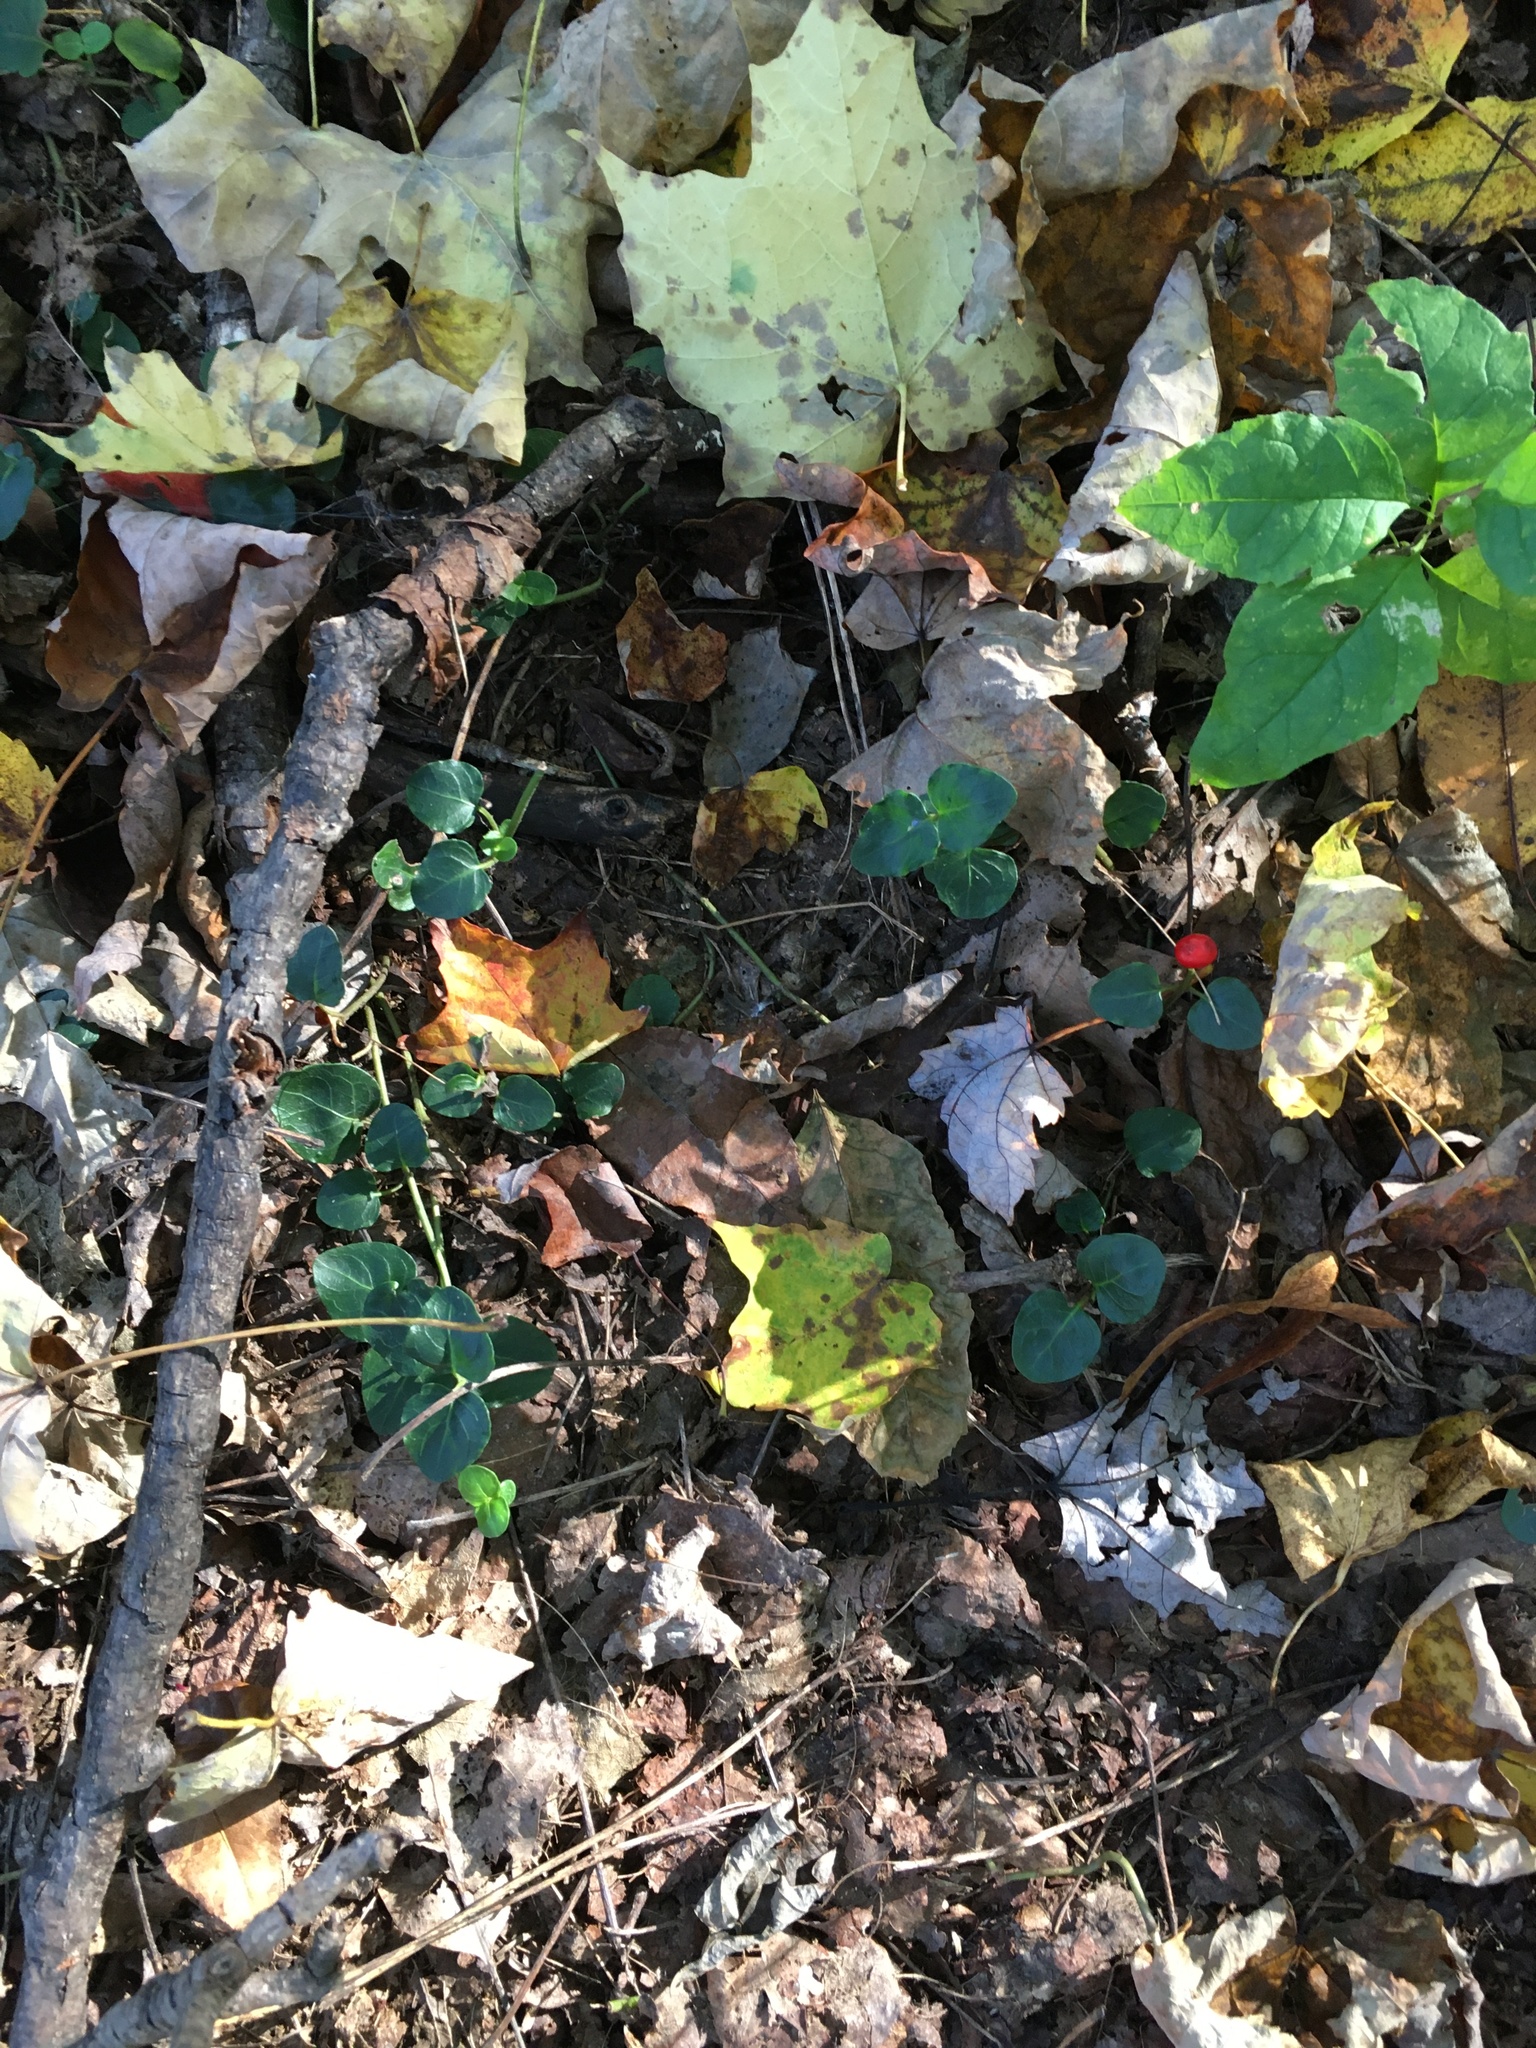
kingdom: Plantae
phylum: Tracheophyta
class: Magnoliopsida
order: Gentianales
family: Rubiaceae
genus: Mitchella
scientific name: Mitchella repens
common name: Partridge-berry
